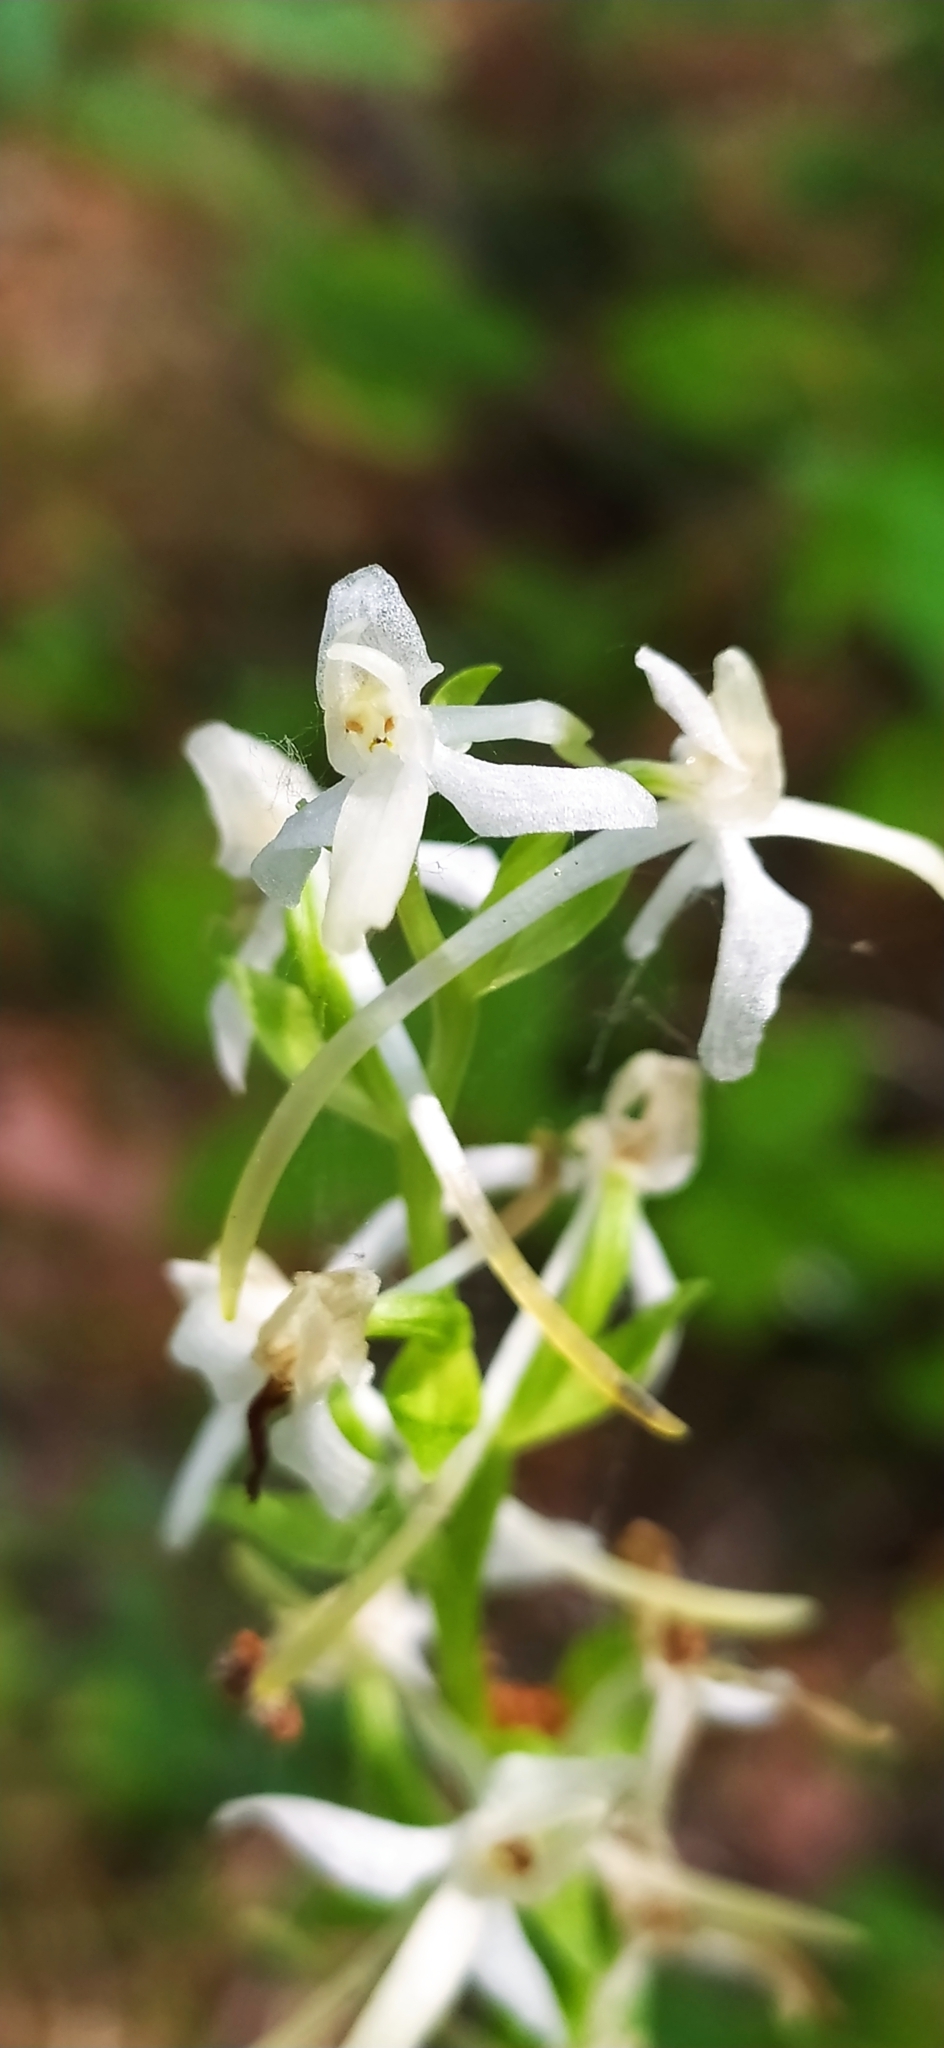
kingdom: Plantae
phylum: Tracheophyta
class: Liliopsida
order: Asparagales
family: Orchidaceae
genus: Platanthera
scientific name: Platanthera bifolia
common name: Lesser butterfly-orchid
